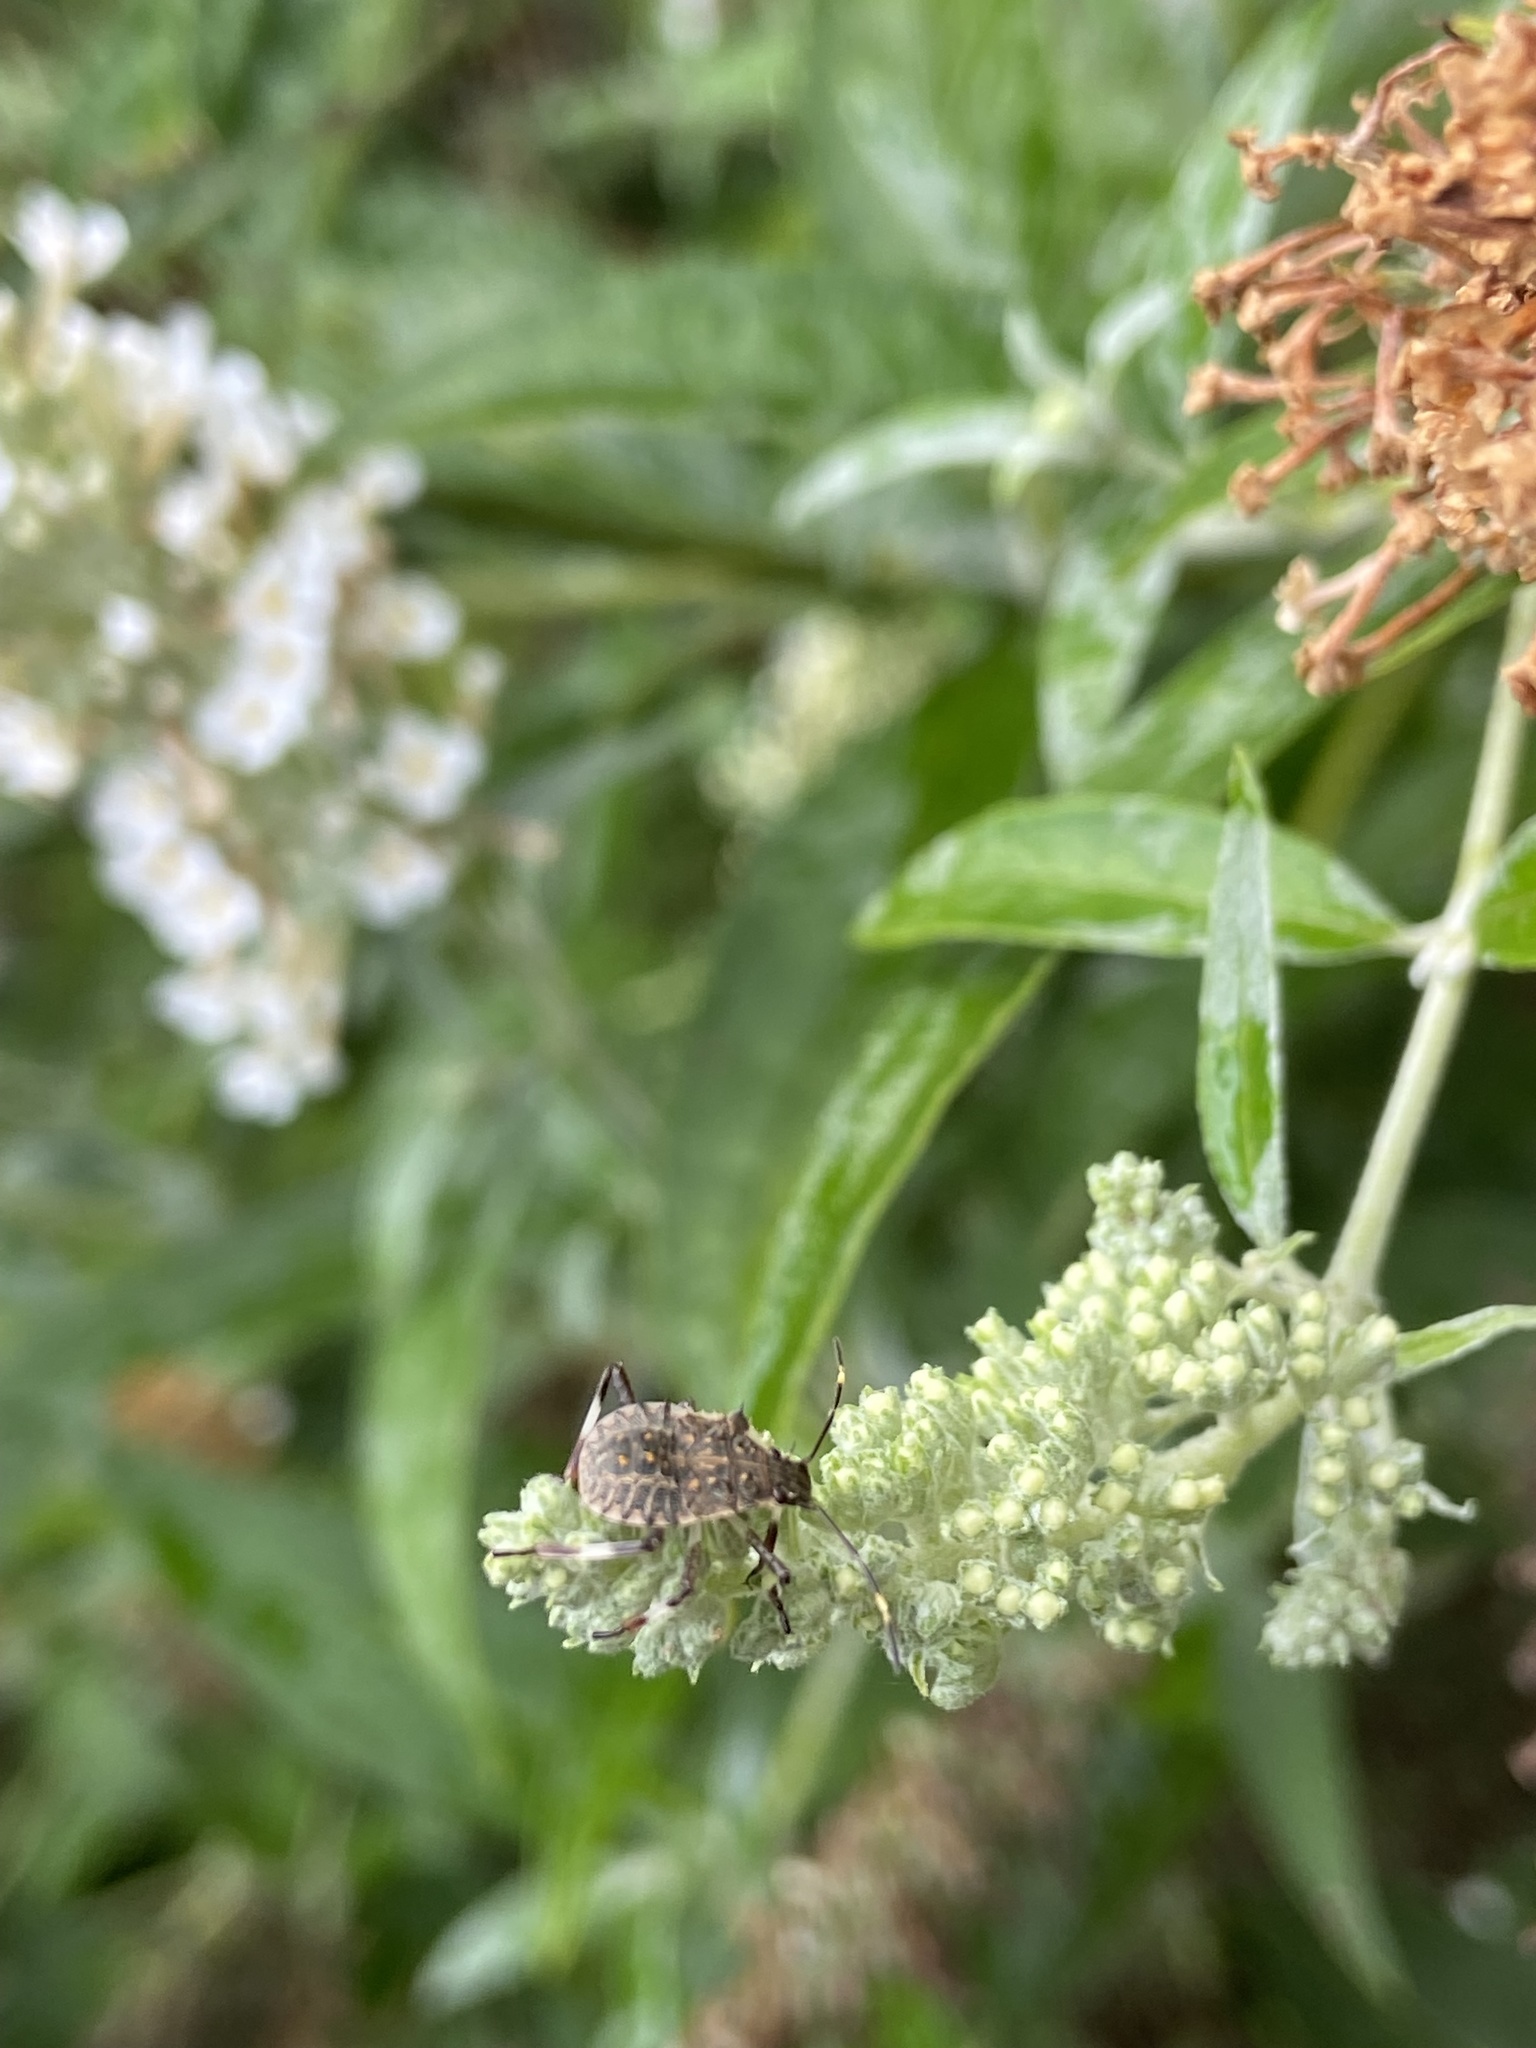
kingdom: Animalia
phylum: Arthropoda
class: Insecta
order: Hemiptera
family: Pentatomidae
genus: Halyomorpha
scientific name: Halyomorpha halys
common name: Brown marmorated stink bug
